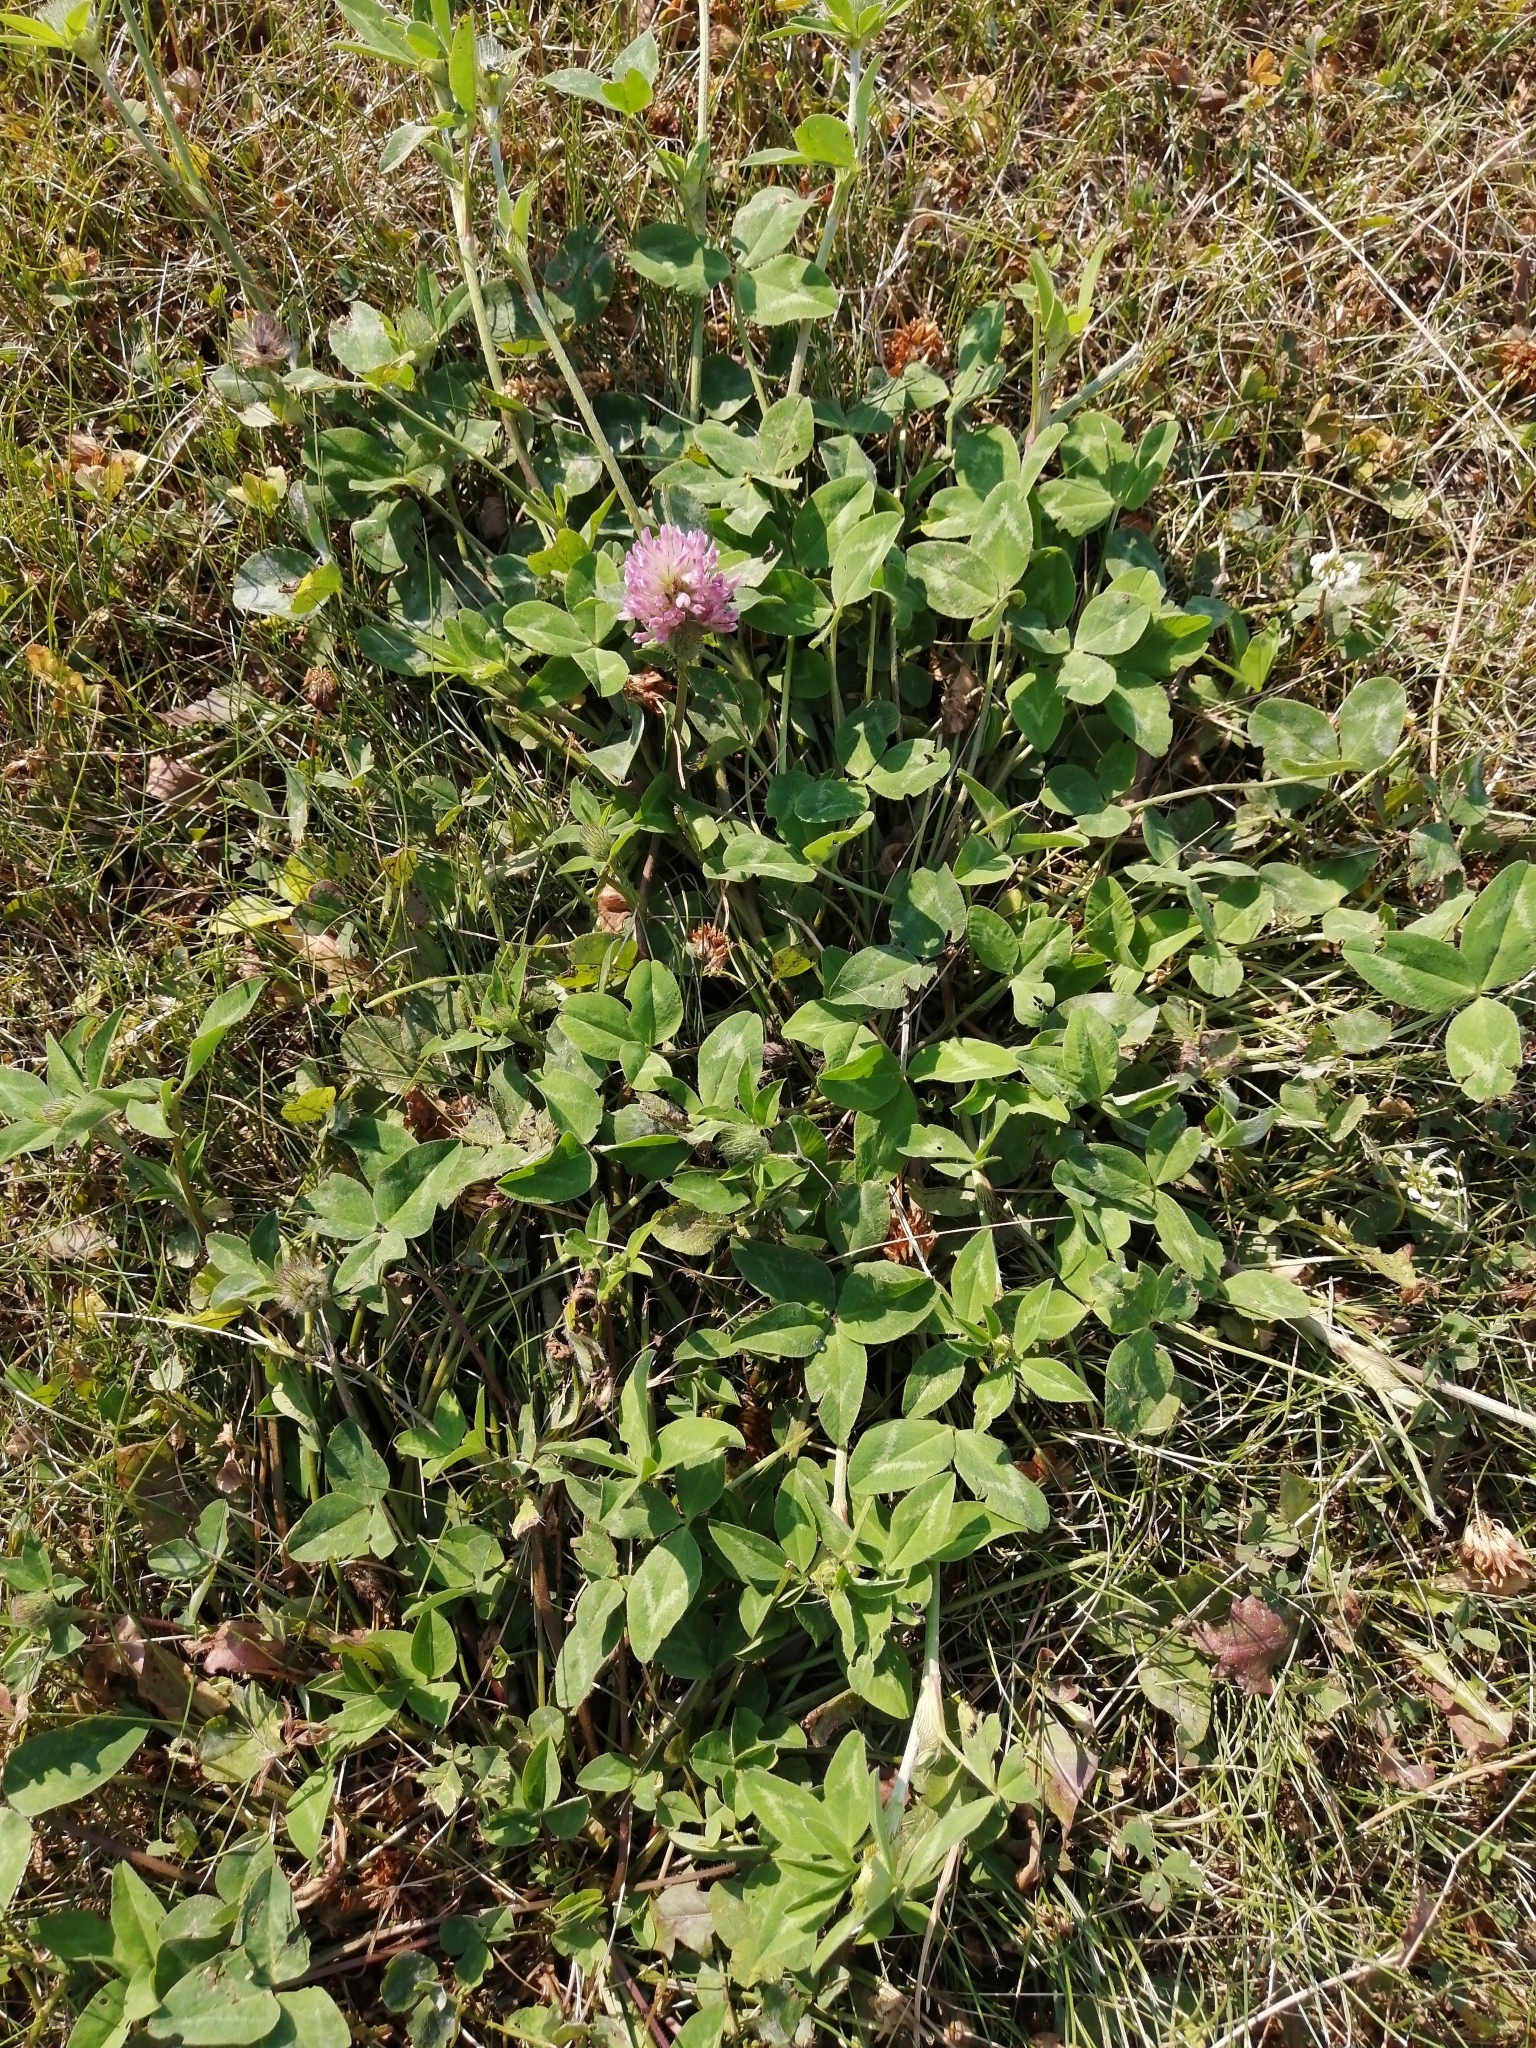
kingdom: Plantae
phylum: Tracheophyta
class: Magnoliopsida
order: Fabales
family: Fabaceae
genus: Trifolium
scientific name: Trifolium pratense
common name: Red clover
